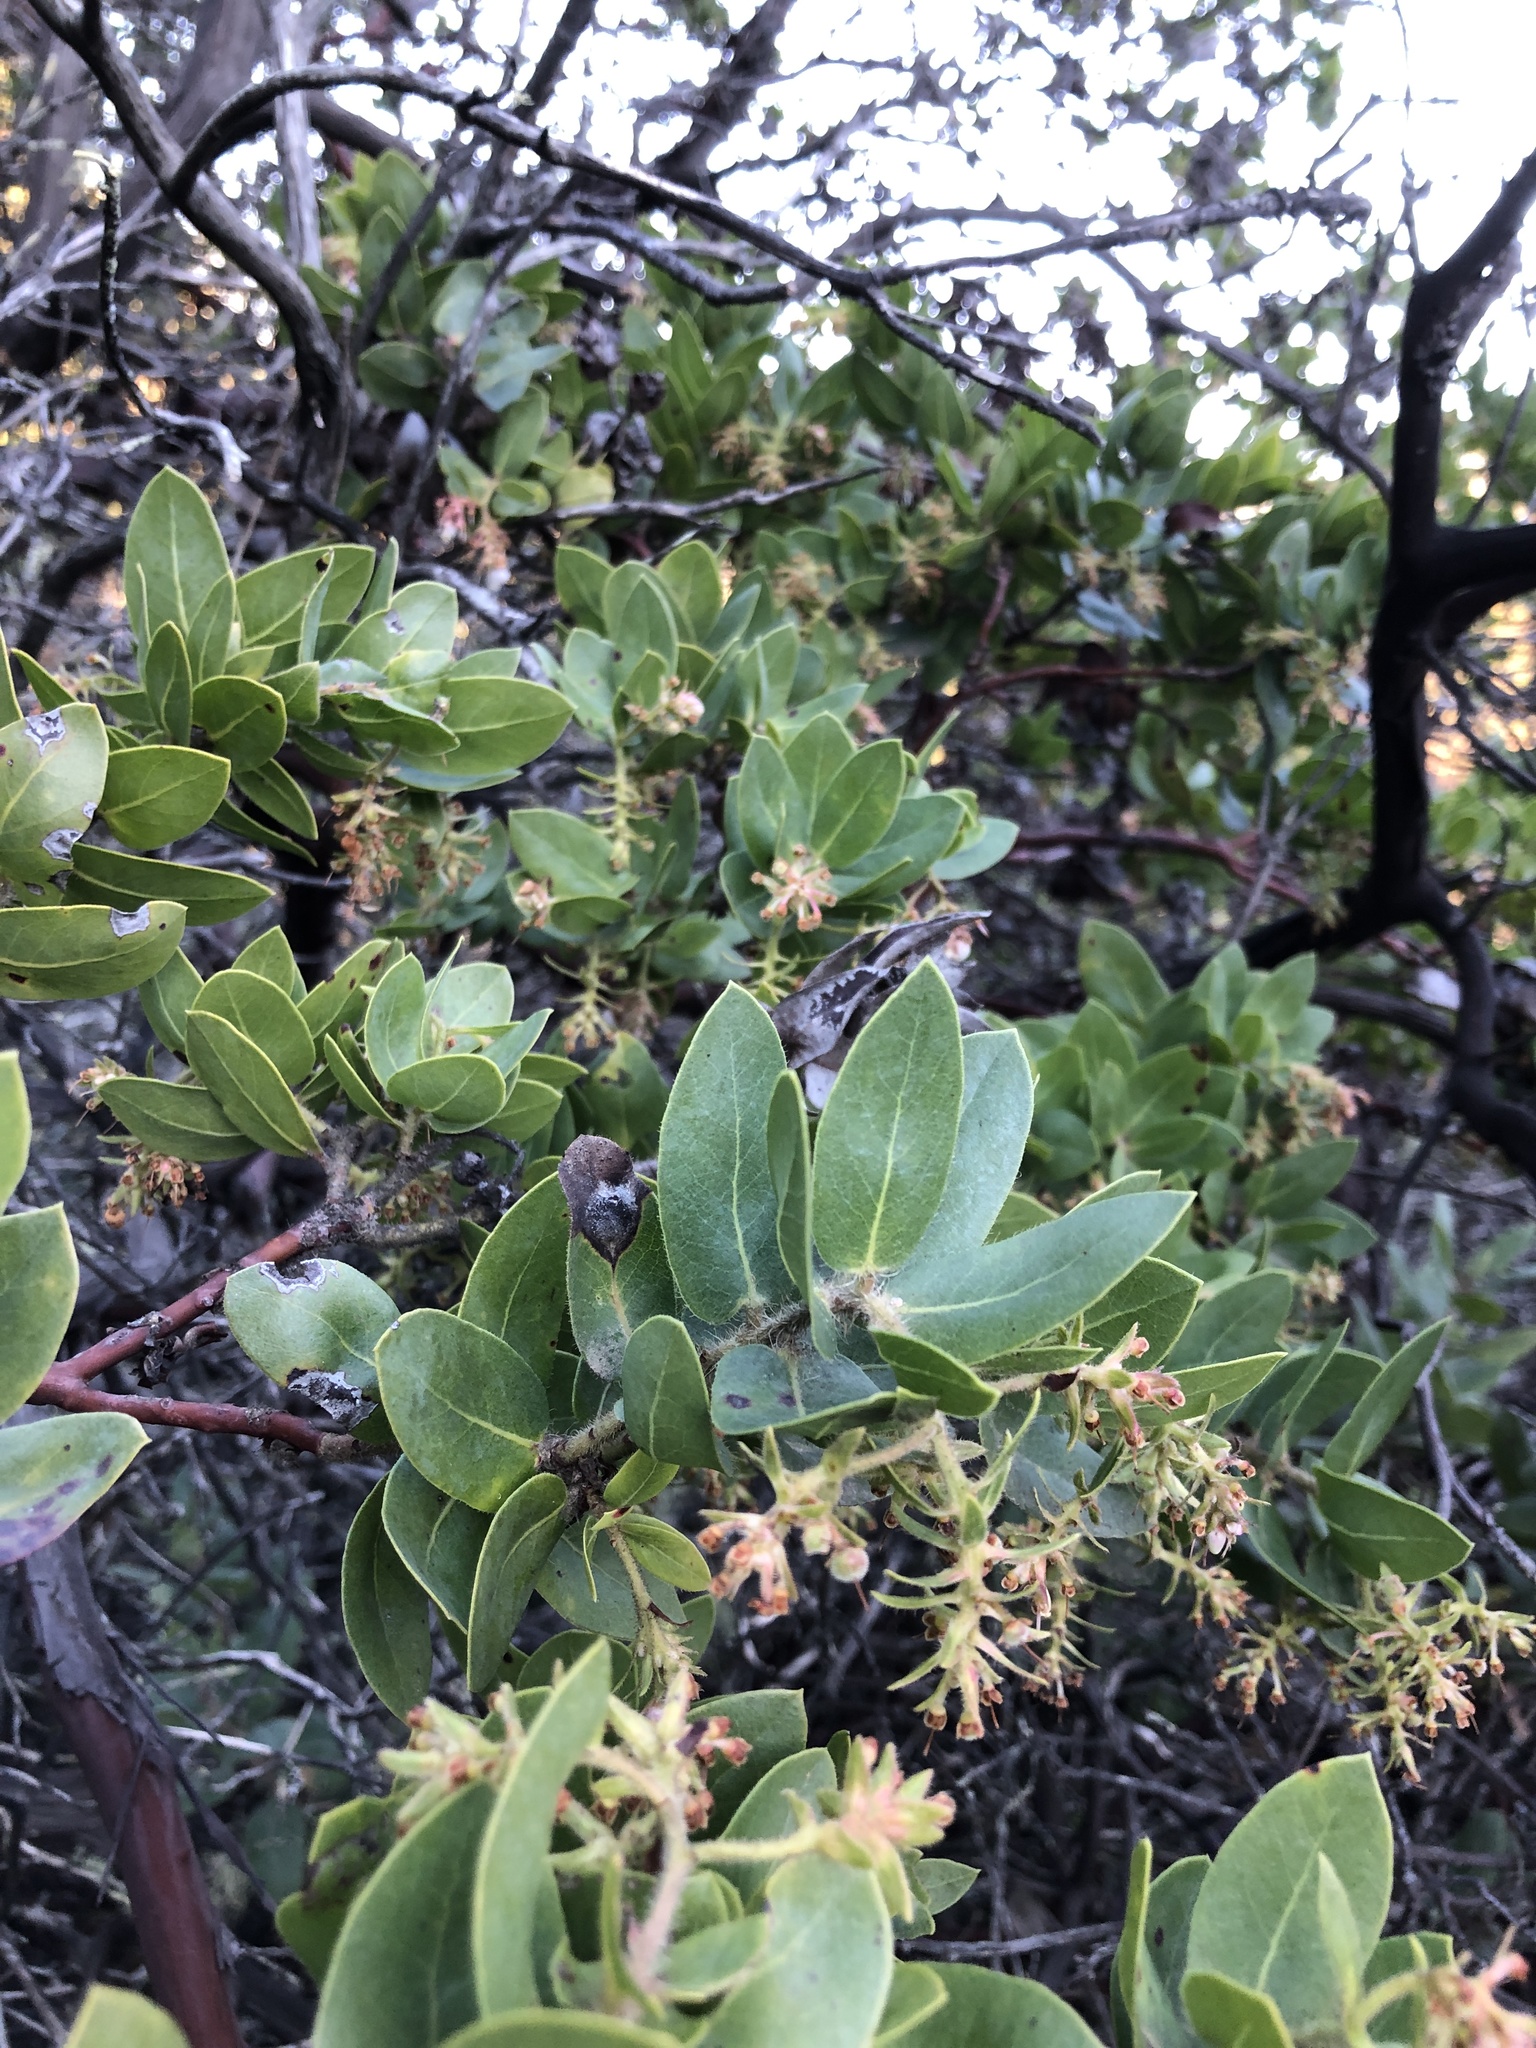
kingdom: Plantae
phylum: Tracheophyta
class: Magnoliopsida
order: Ericales
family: Ericaceae
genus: Arctostaphylos
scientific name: Arctostaphylos montaraensis
